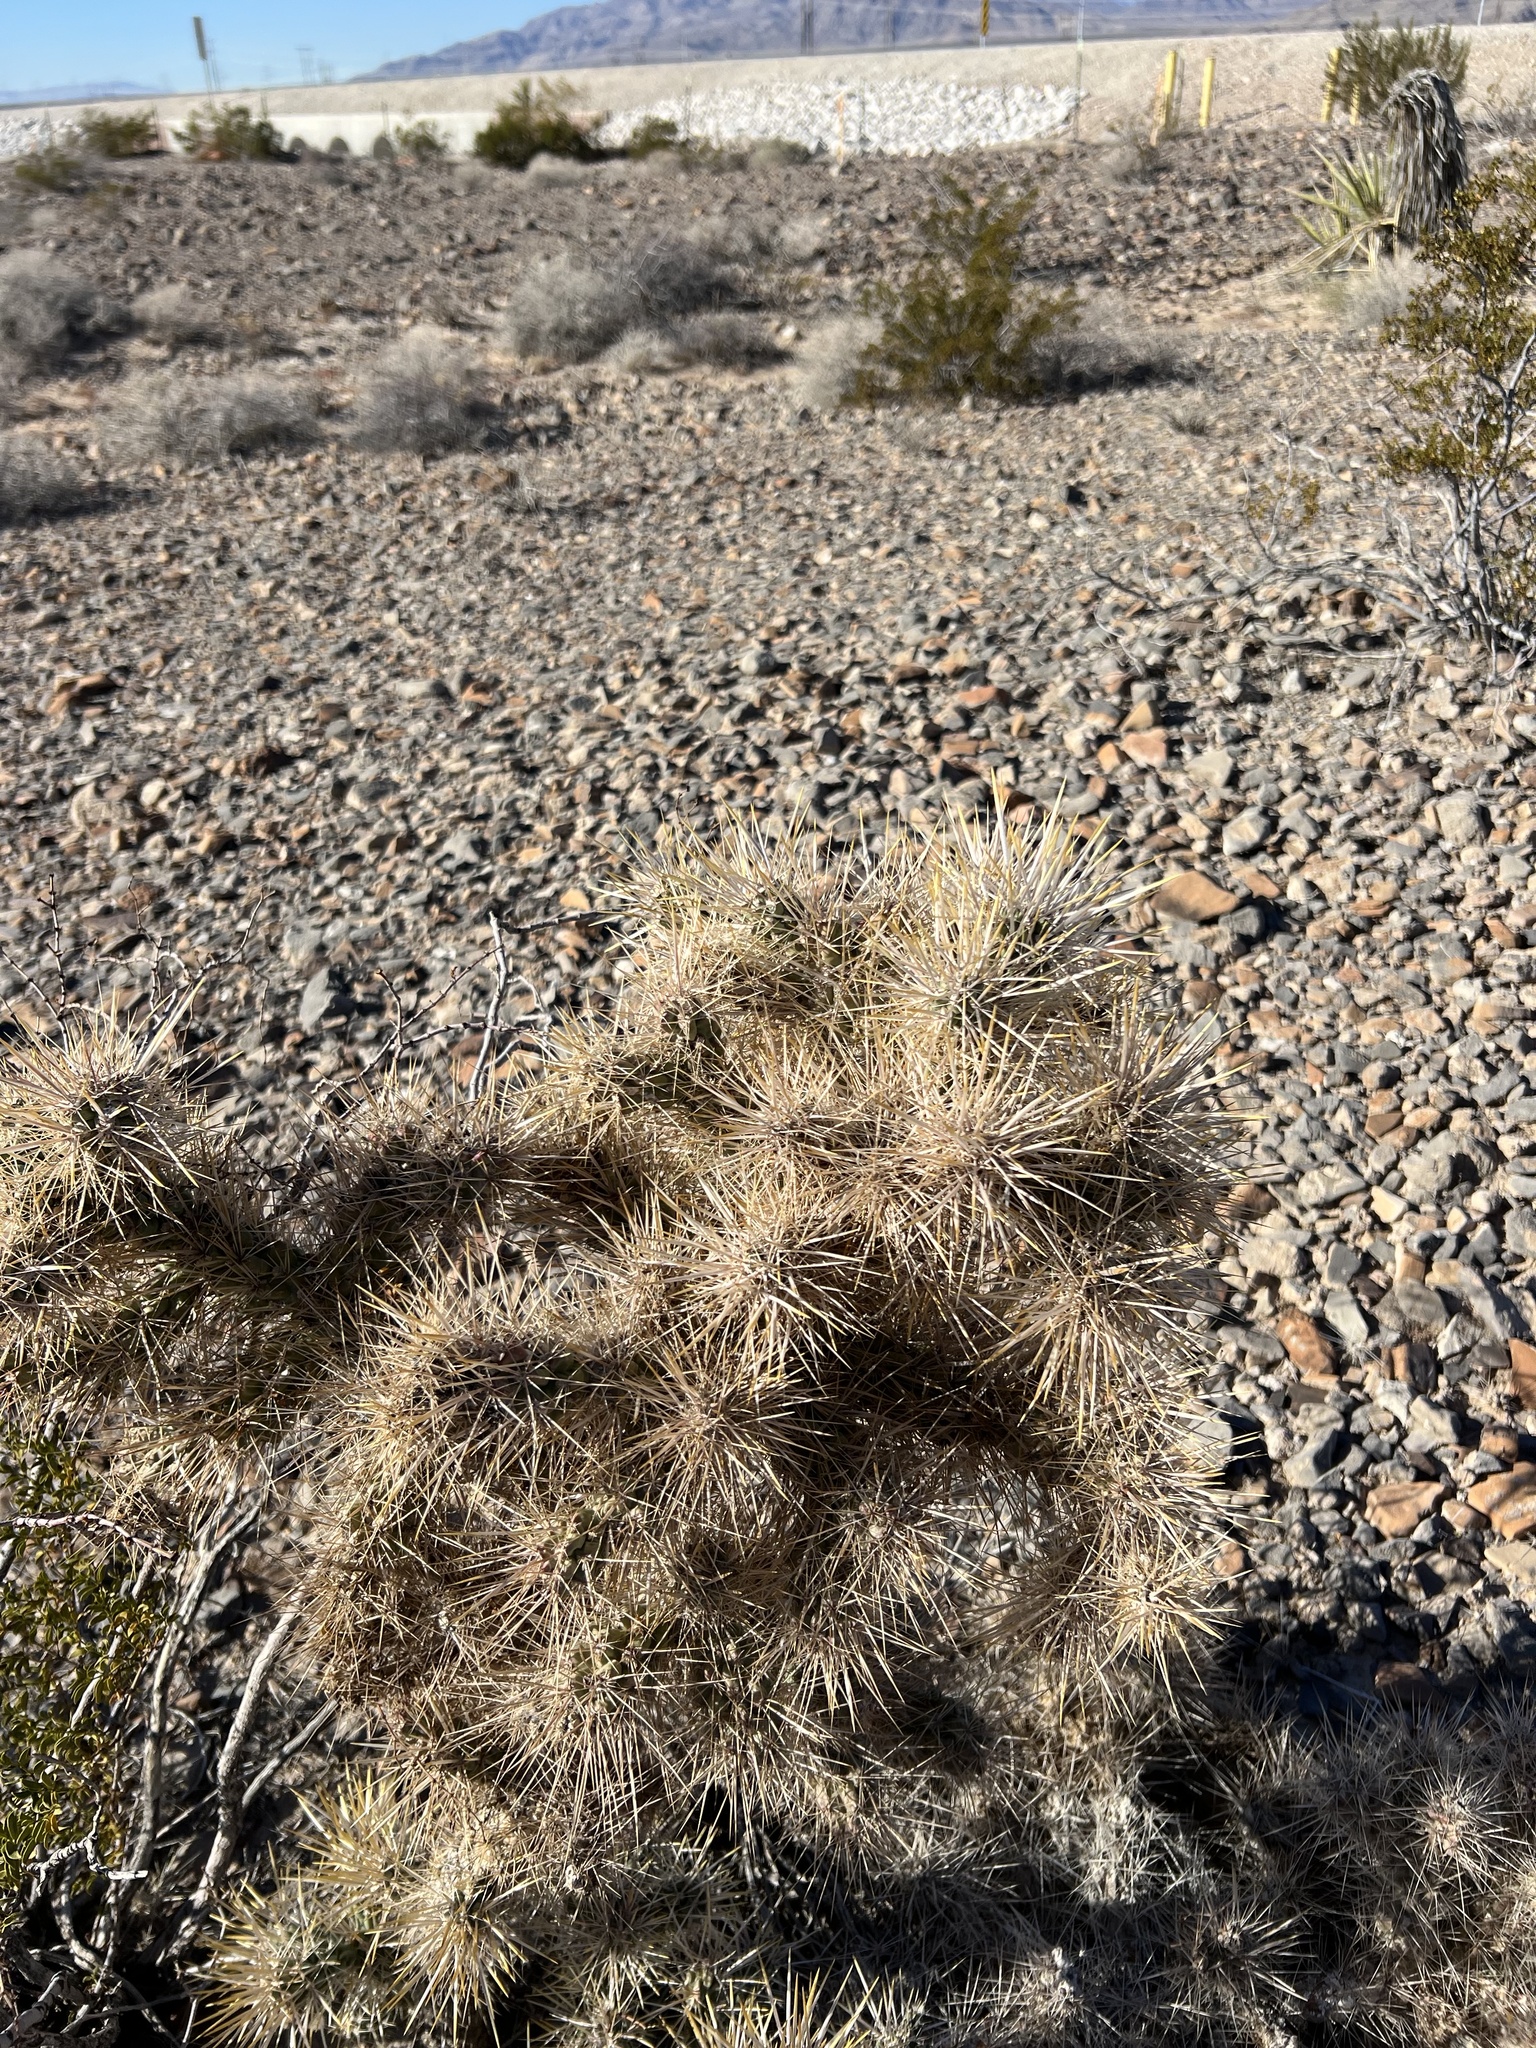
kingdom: Plantae
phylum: Tracheophyta
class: Magnoliopsida
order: Caryophyllales
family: Cactaceae
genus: Cylindropuntia
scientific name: Cylindropuntia echinocarpa
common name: Ground cholla
